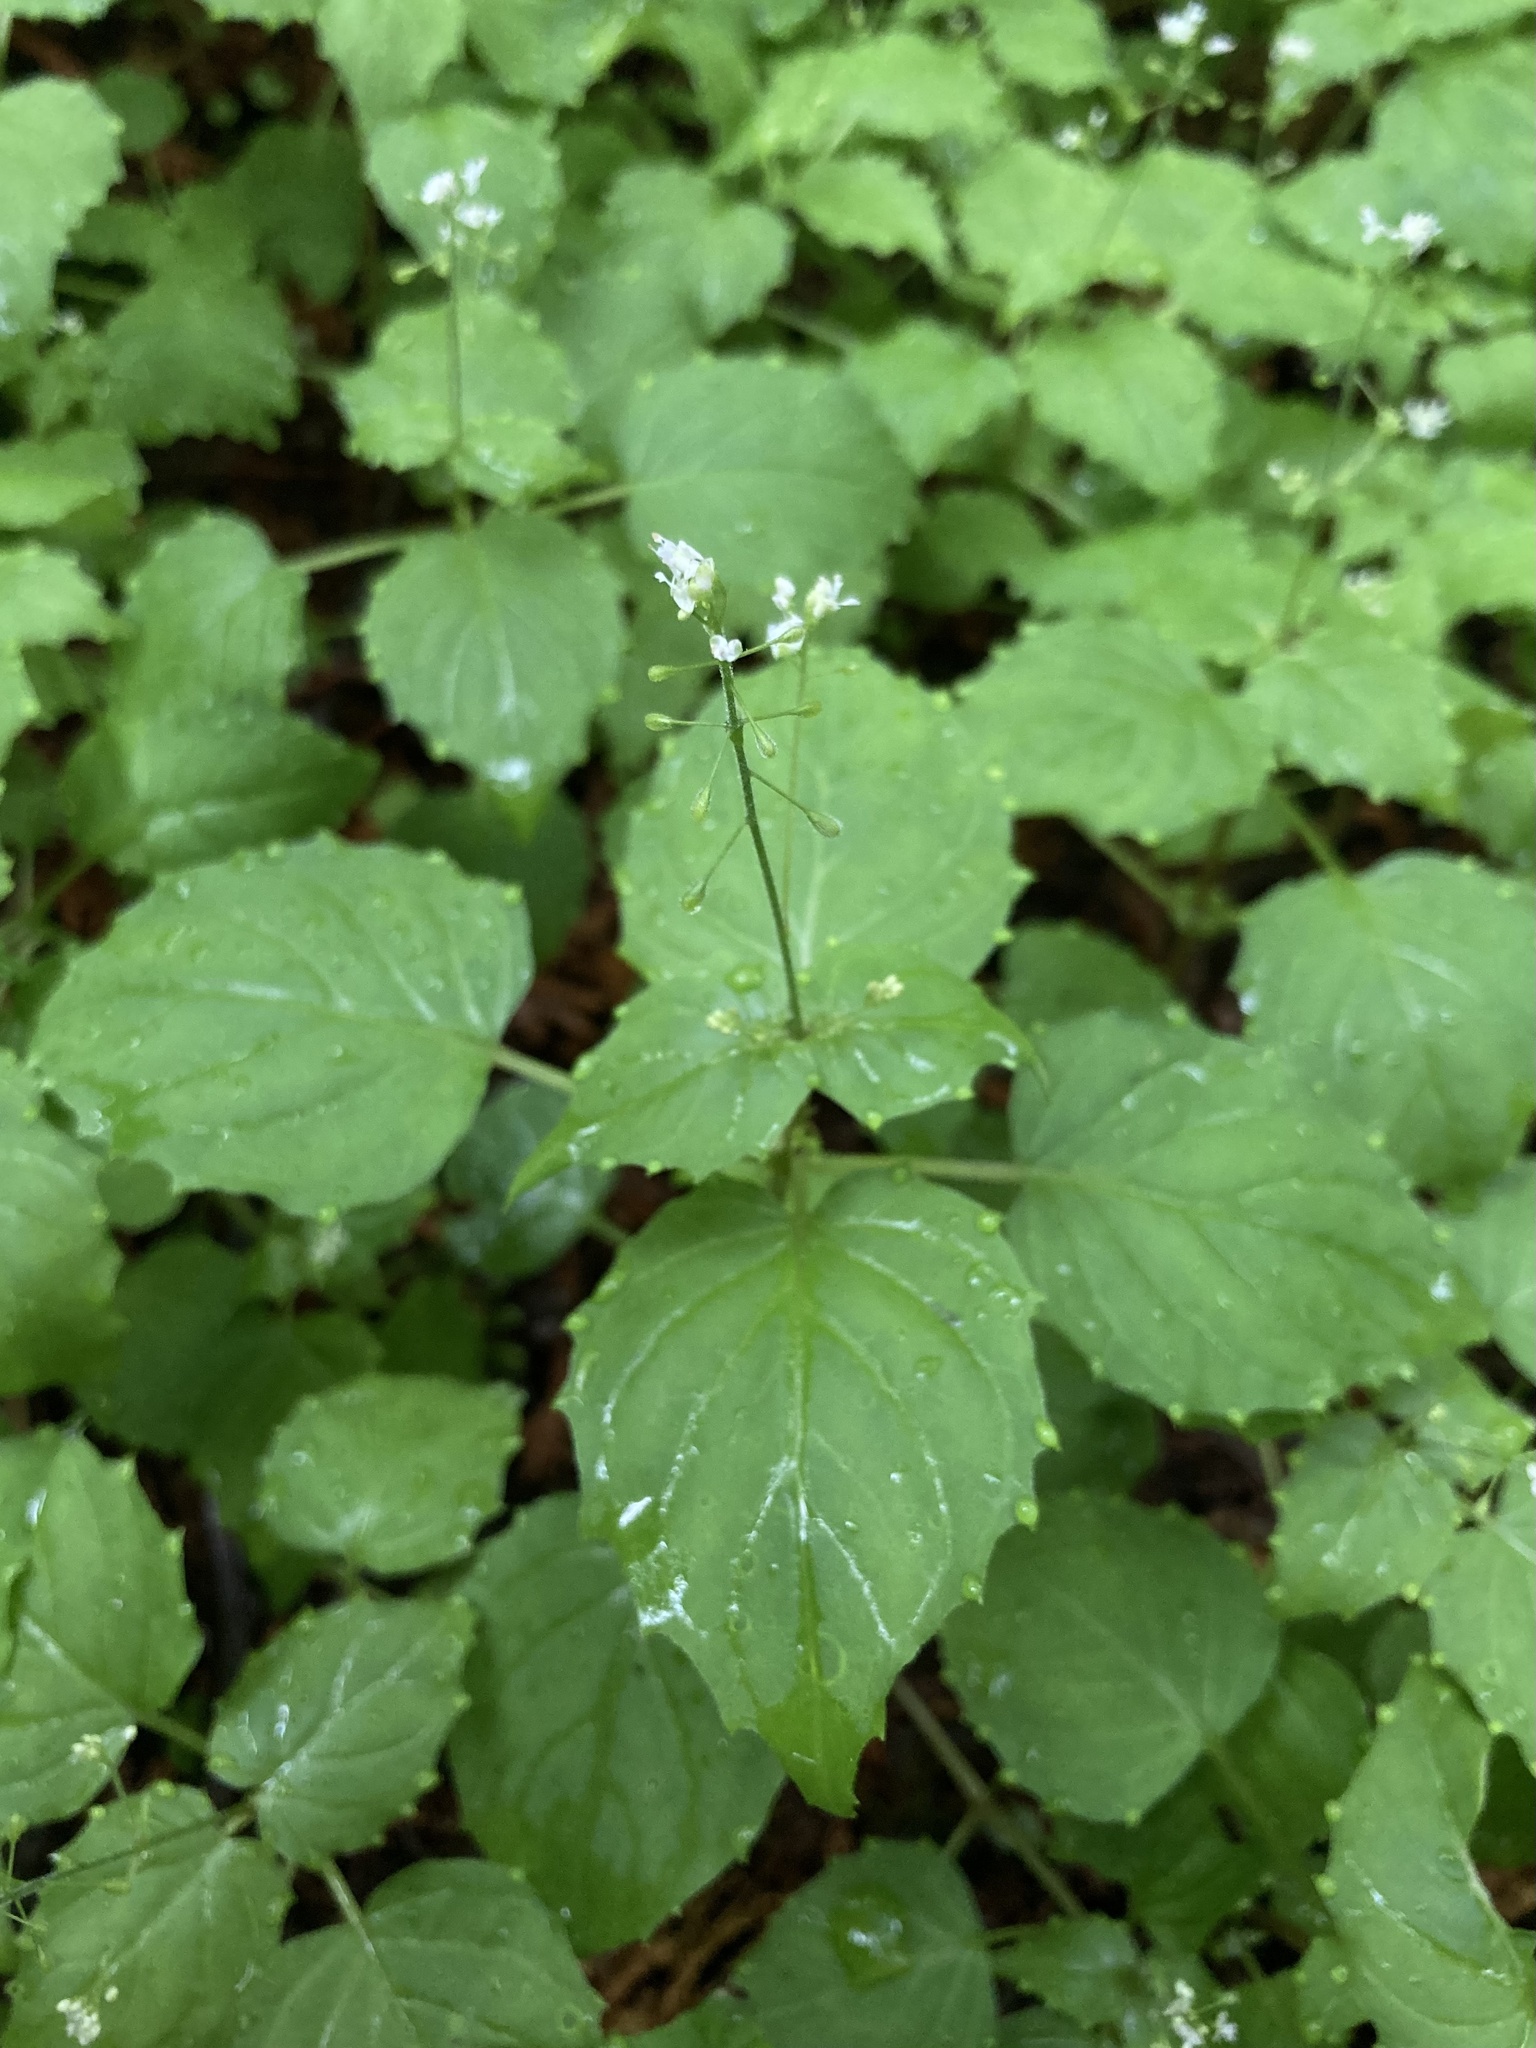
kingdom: Plantae
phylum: Tracheophyta
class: Magnoliopsida
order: Myrtales
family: Onagraceae
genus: Circaea
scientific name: Circaea alpina
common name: Alpine enchanter's-nightshade
